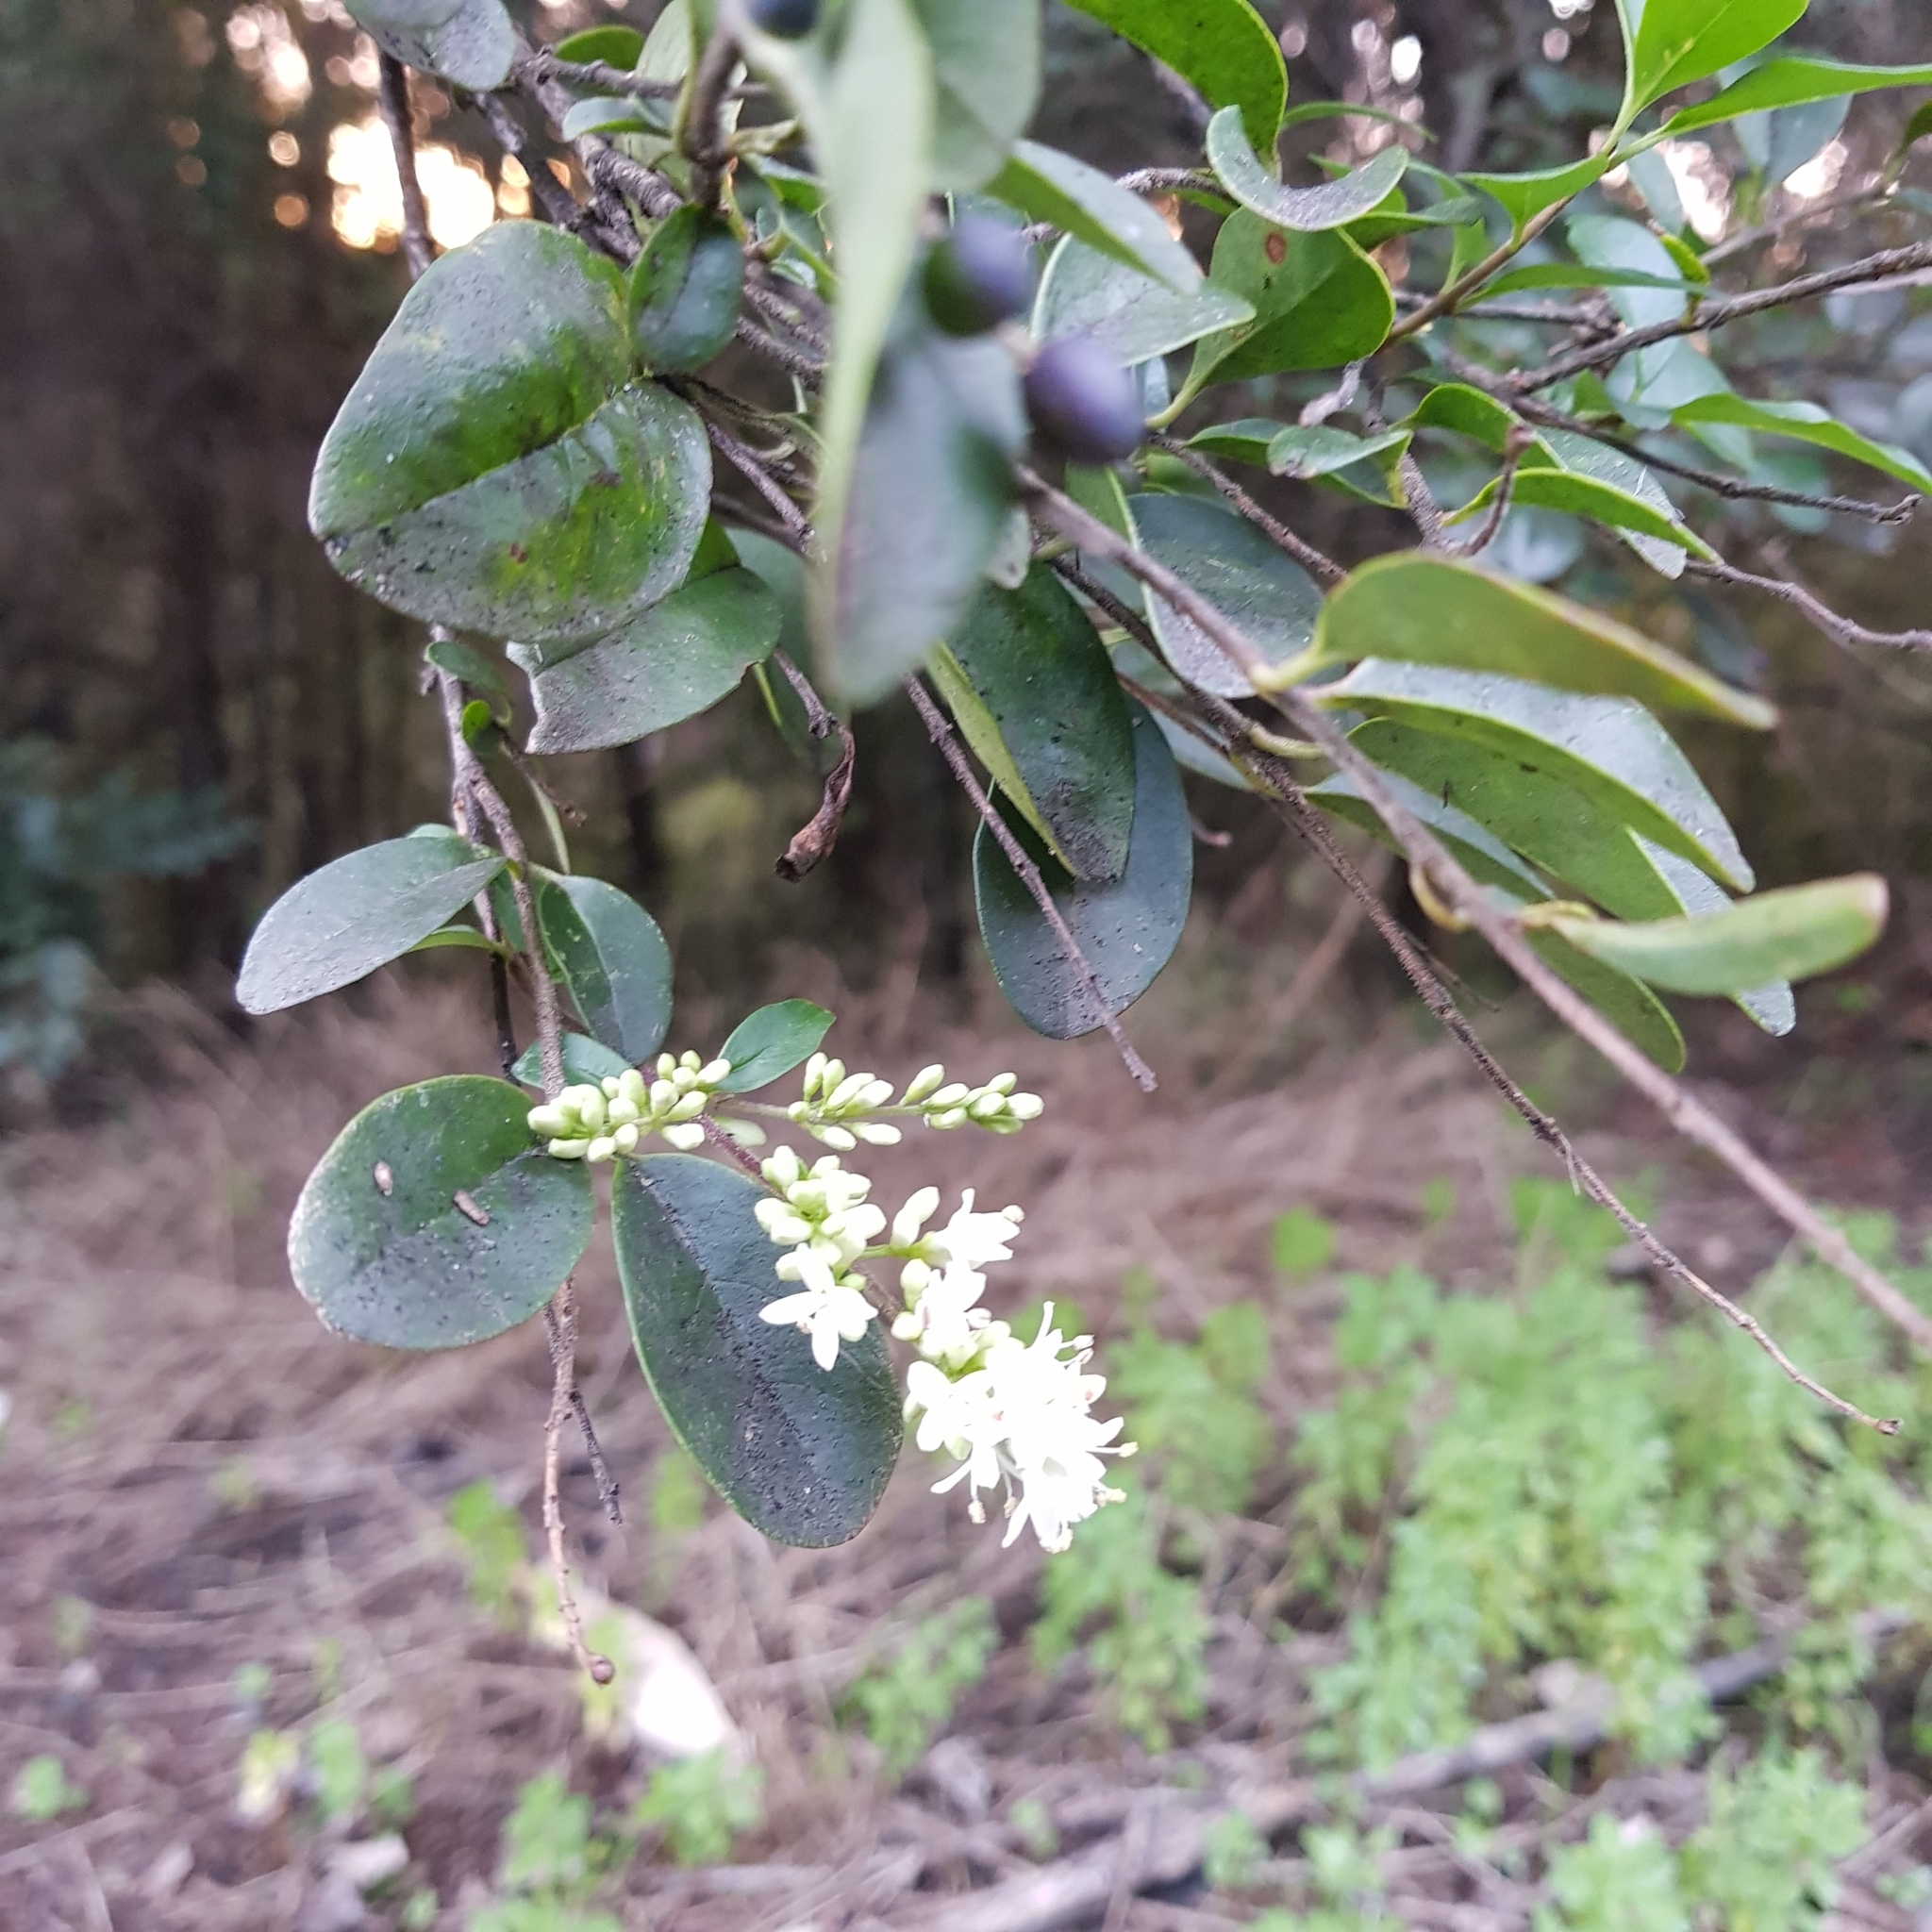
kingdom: Plantae
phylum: Tracheophyta
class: Magnoliopsida
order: Lamiales
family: Oleaceae
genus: Ligustrum
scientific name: Ligustrum sinense
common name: Chinese privet
